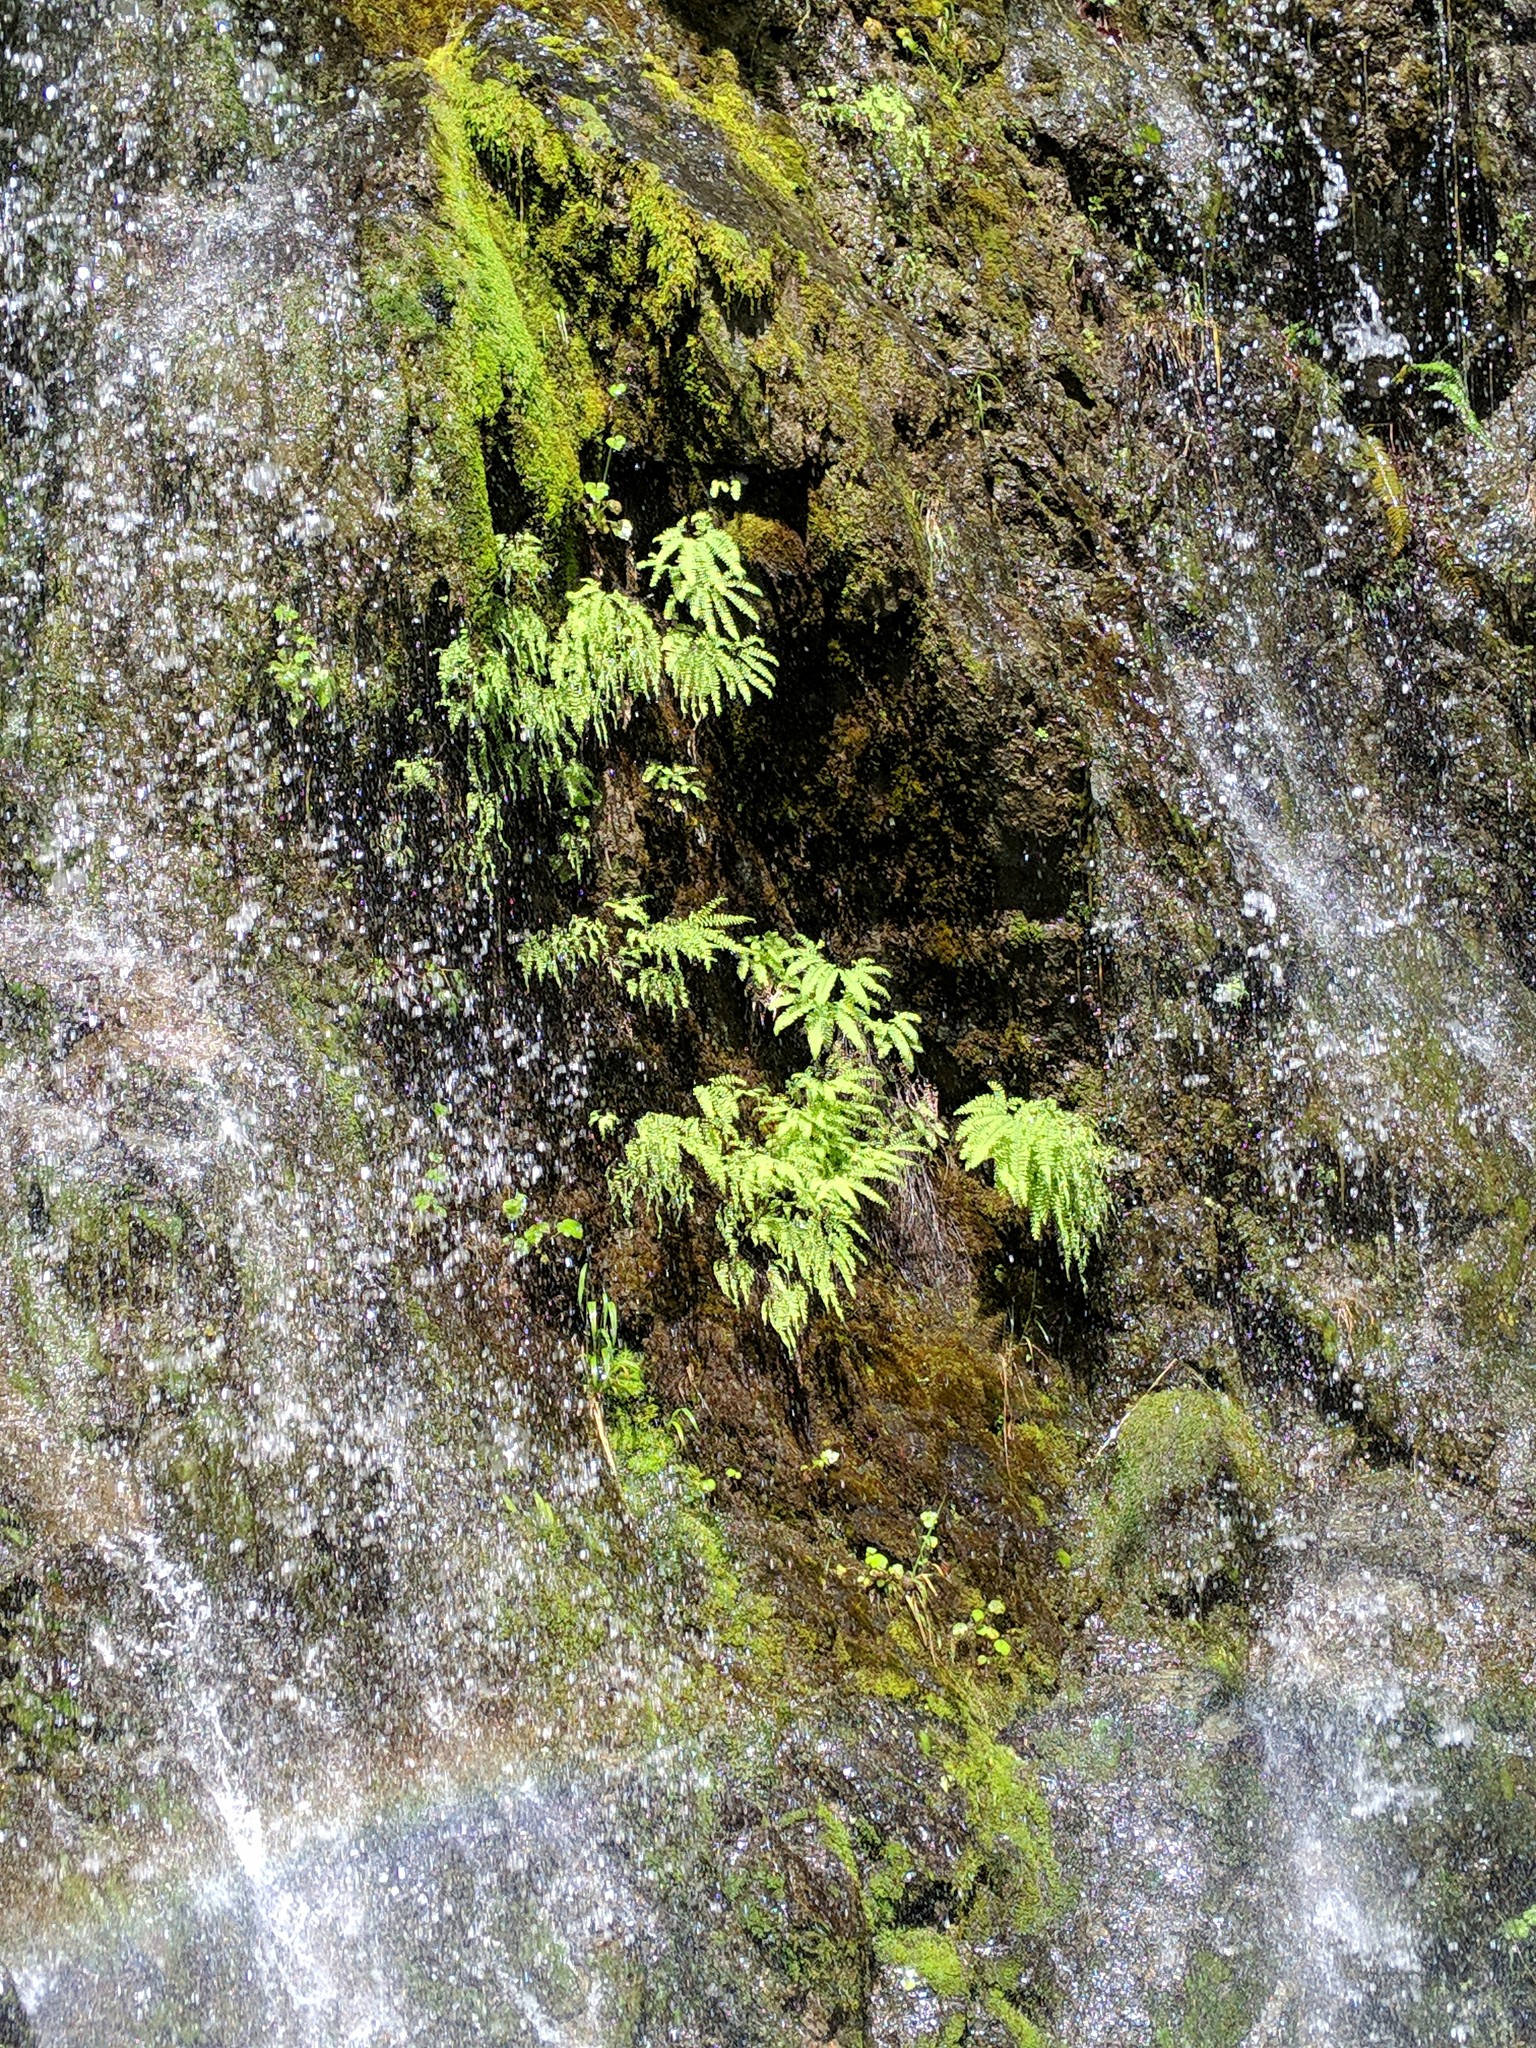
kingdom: Plantae
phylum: Tracheophyta
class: Polypodiopsida
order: Polypodiales
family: Pteridaceae
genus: Adiantum
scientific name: Adiantum aleuticum
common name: Aleutian maidenhair fern
